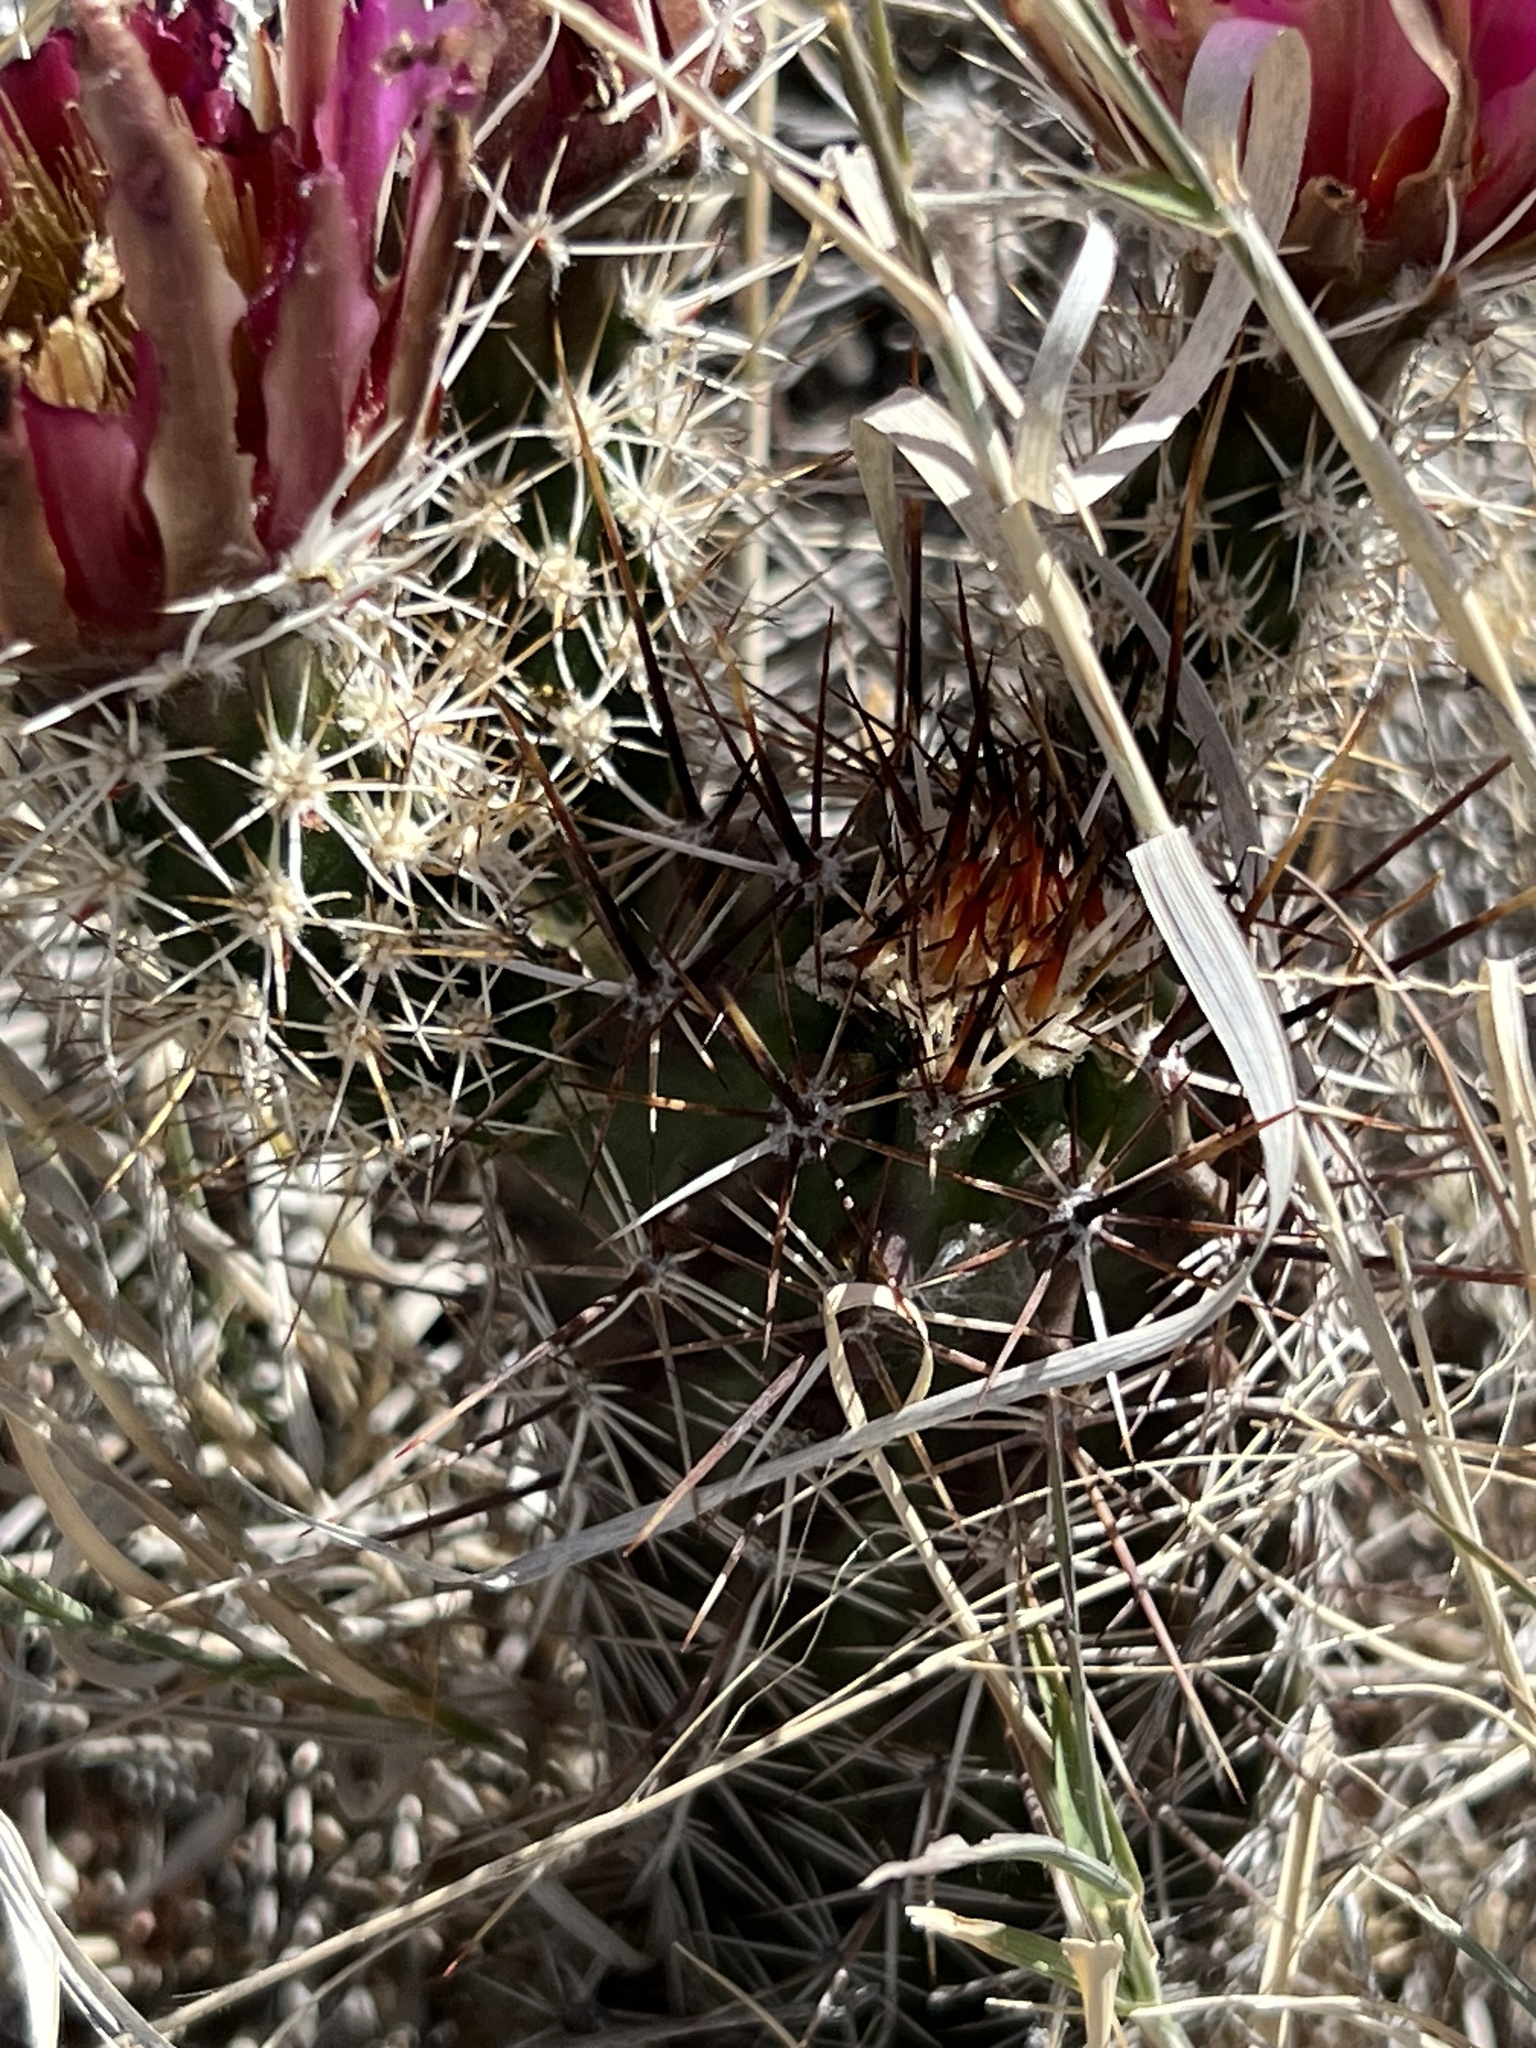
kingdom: Plantae
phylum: Tracheophyta
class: Magnoliopsida
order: Caryophyllales
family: Cactaceae
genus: Echinocereus
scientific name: Echinocereus fendleri
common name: Fendler's hedgehog cactus
